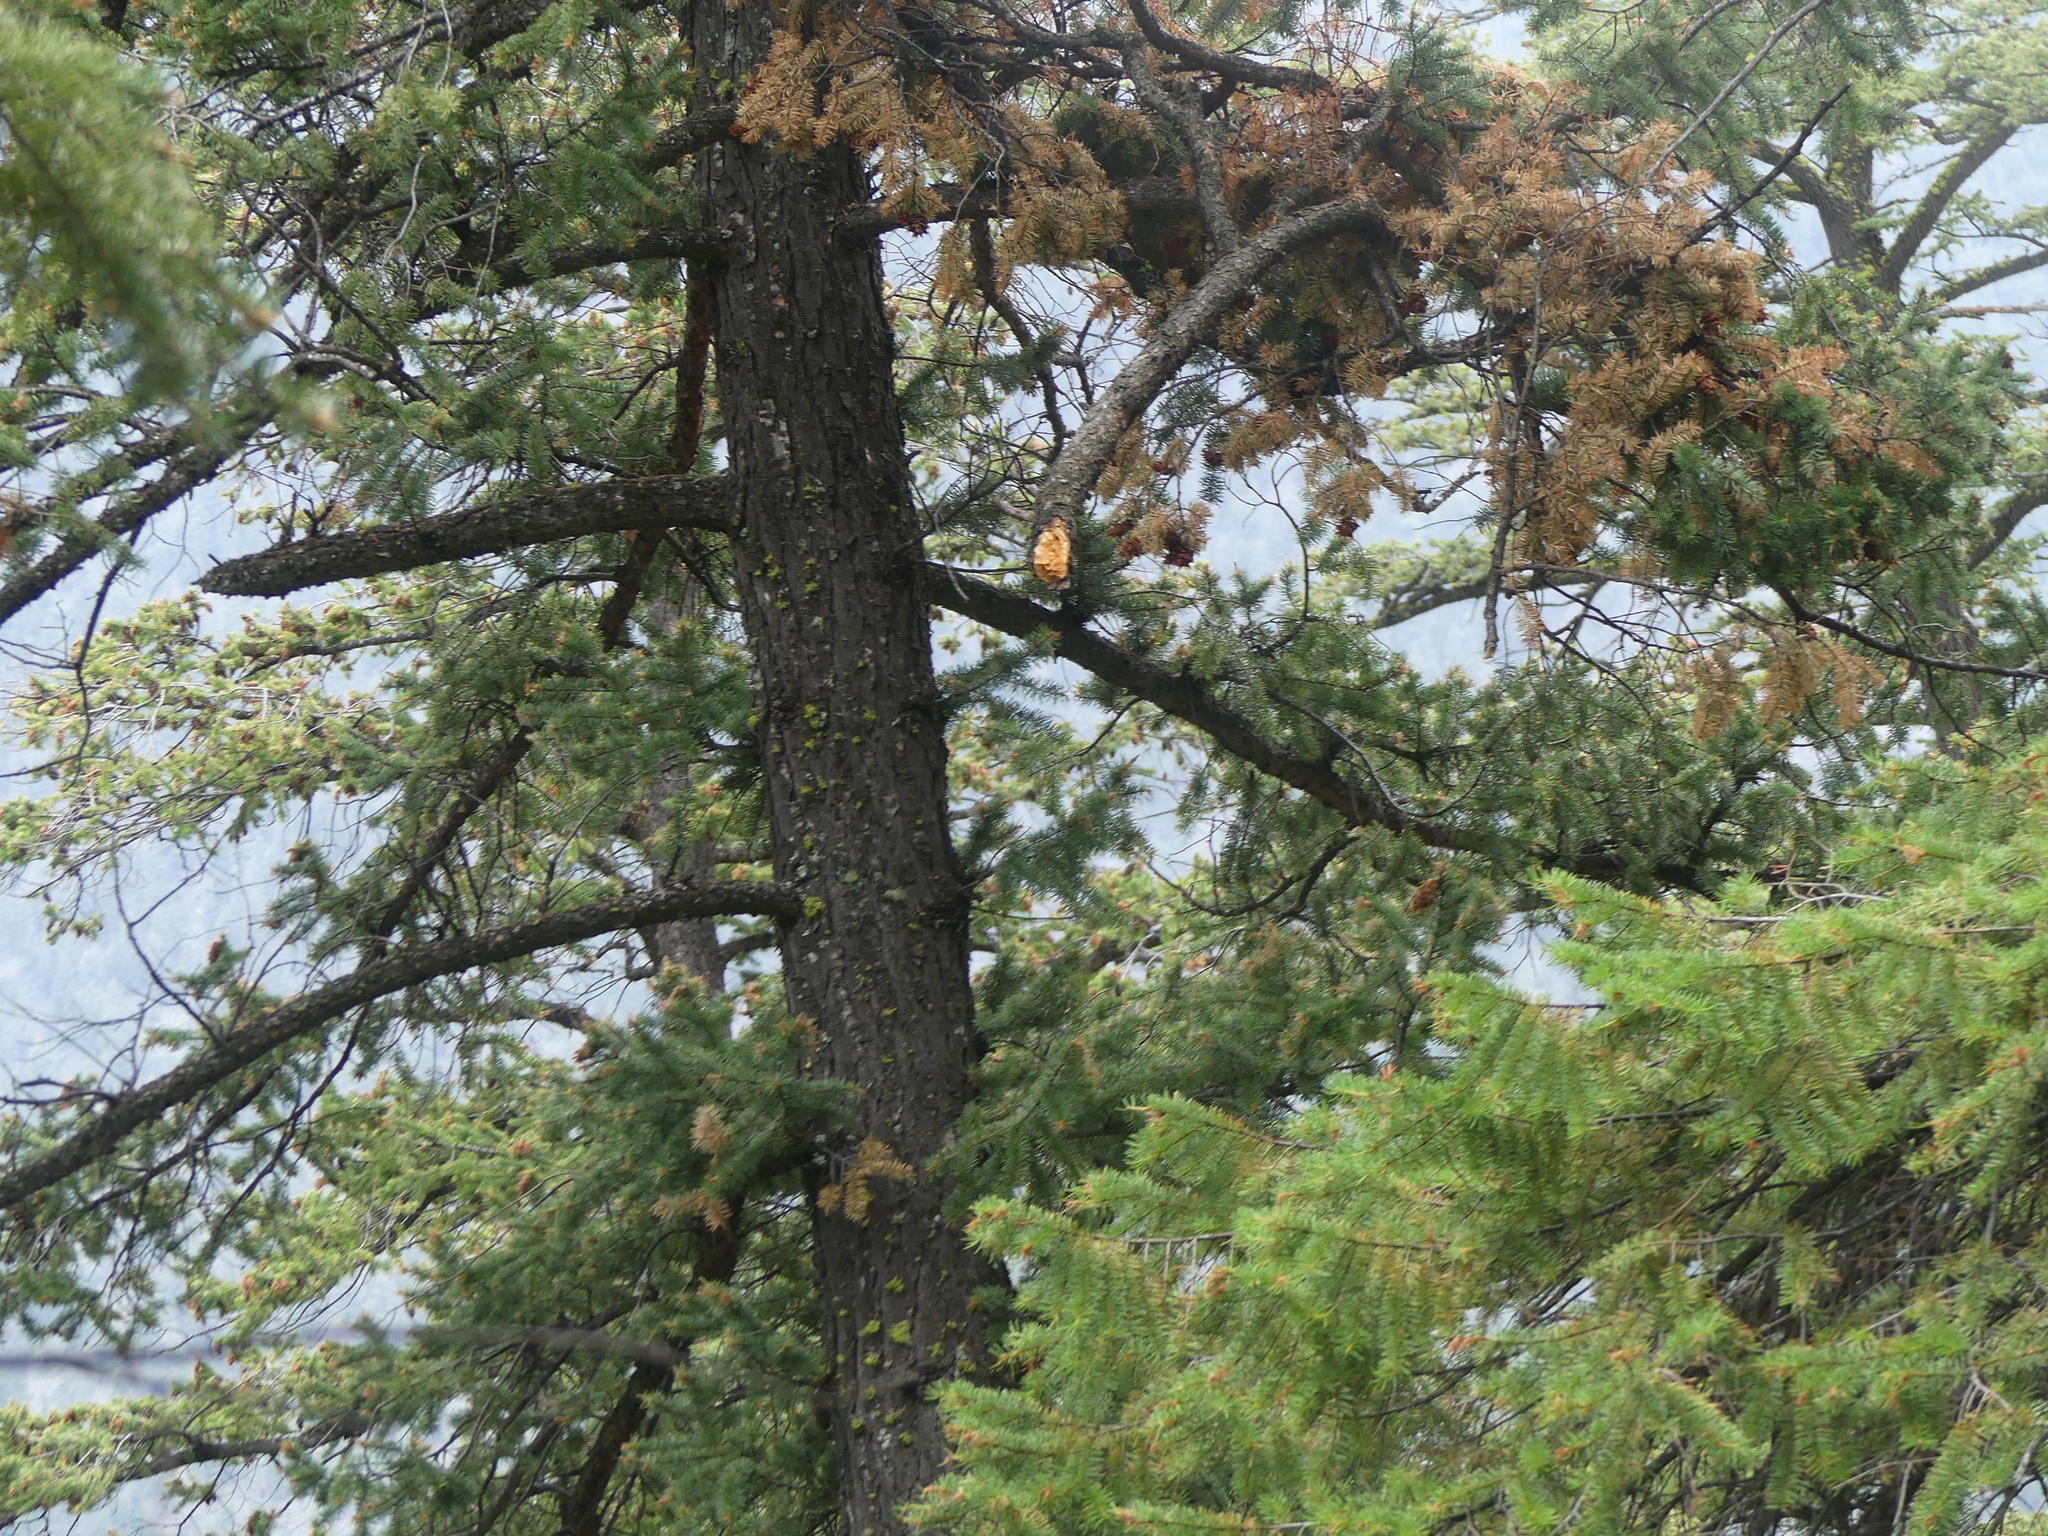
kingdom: Plantae
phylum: Tracheophyta
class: Pinopsida
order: Pinales
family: Pinaceae
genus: Pseudotsuga
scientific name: Pseudotsuga menziesii
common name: Douglas fir
